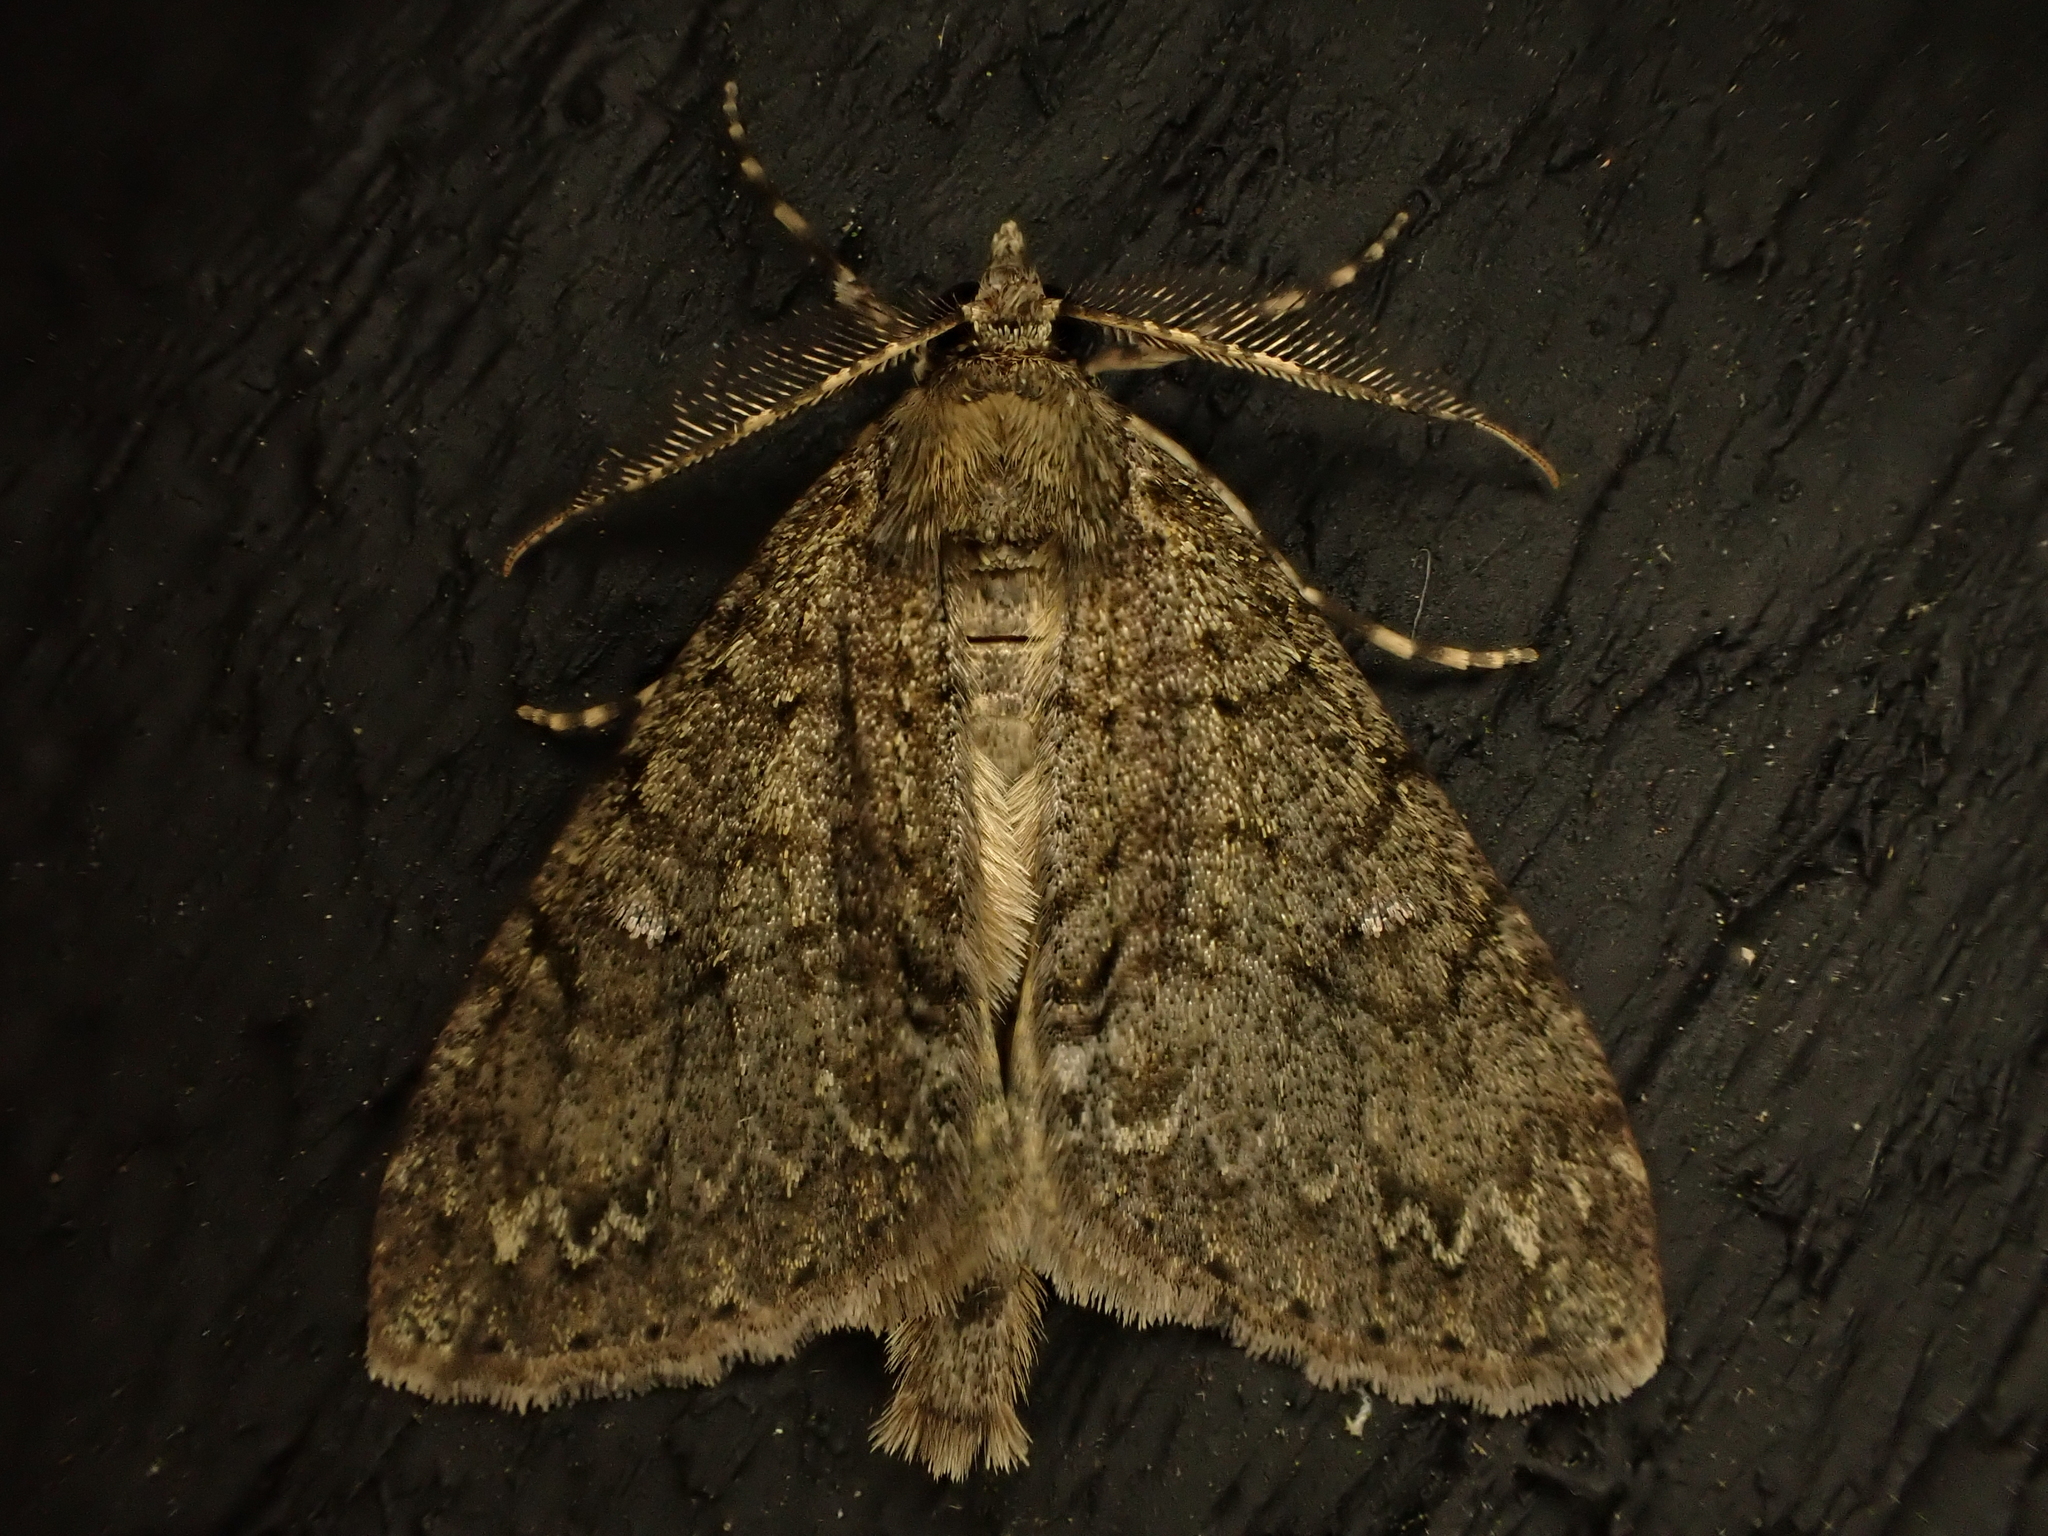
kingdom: Animalia
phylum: Arthropoda
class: Insecta
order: Lepidoptera
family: Geometridae
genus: Pseudocoremia
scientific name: Pseudocoremia suavis
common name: Common forest looper
